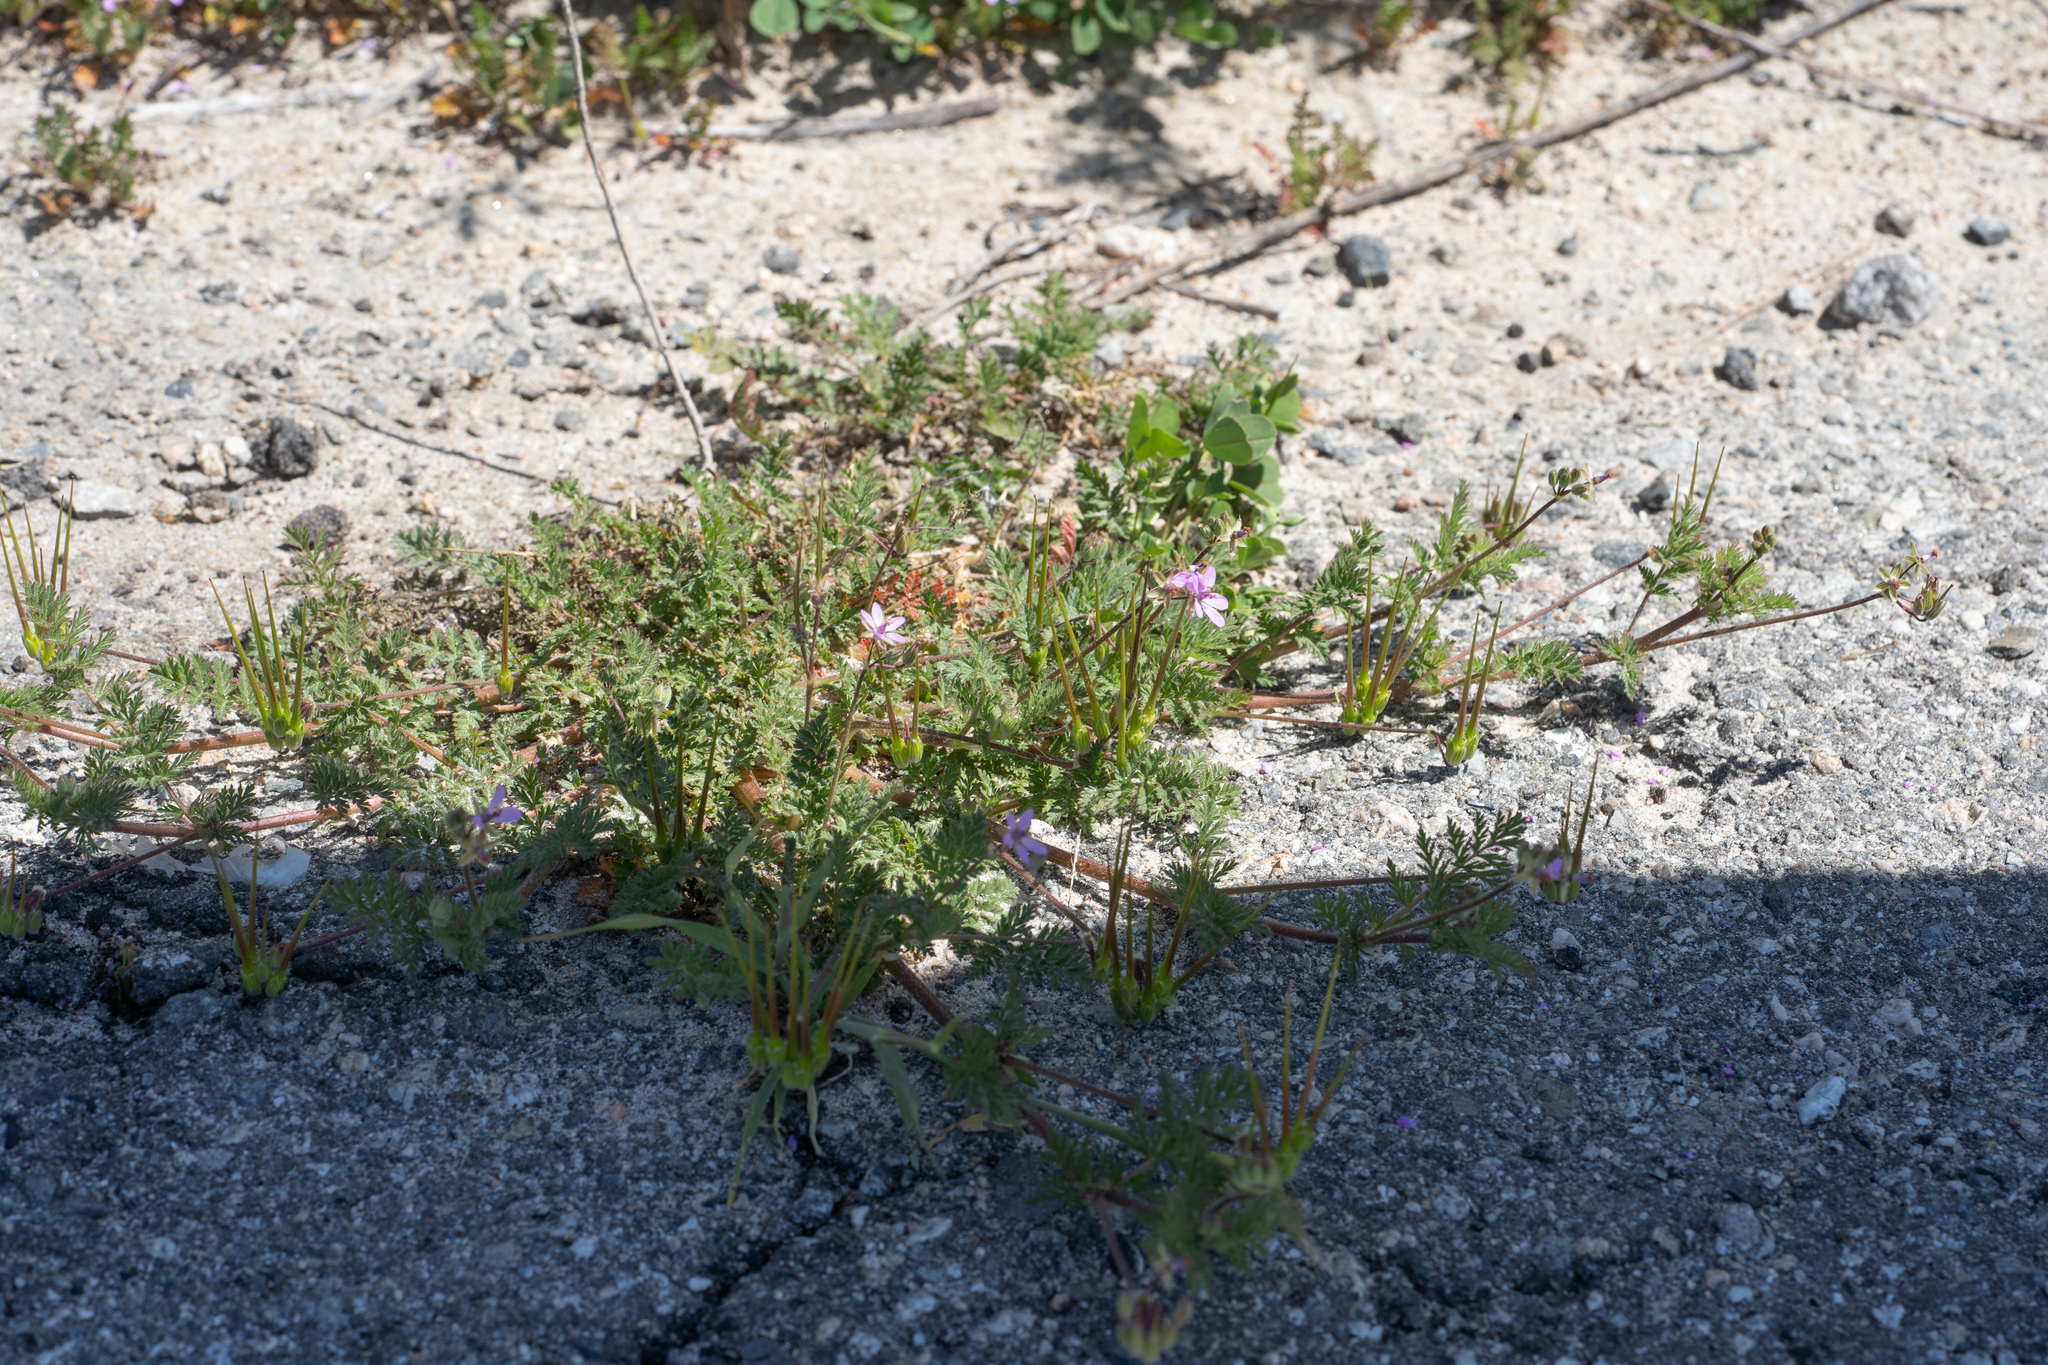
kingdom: Plantae
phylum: Tracheophyta
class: Magnoliopsida
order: Geraniales
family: Geraniaceae
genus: Erodium
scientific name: Erodium cicutarium
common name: Common stork's-bill
